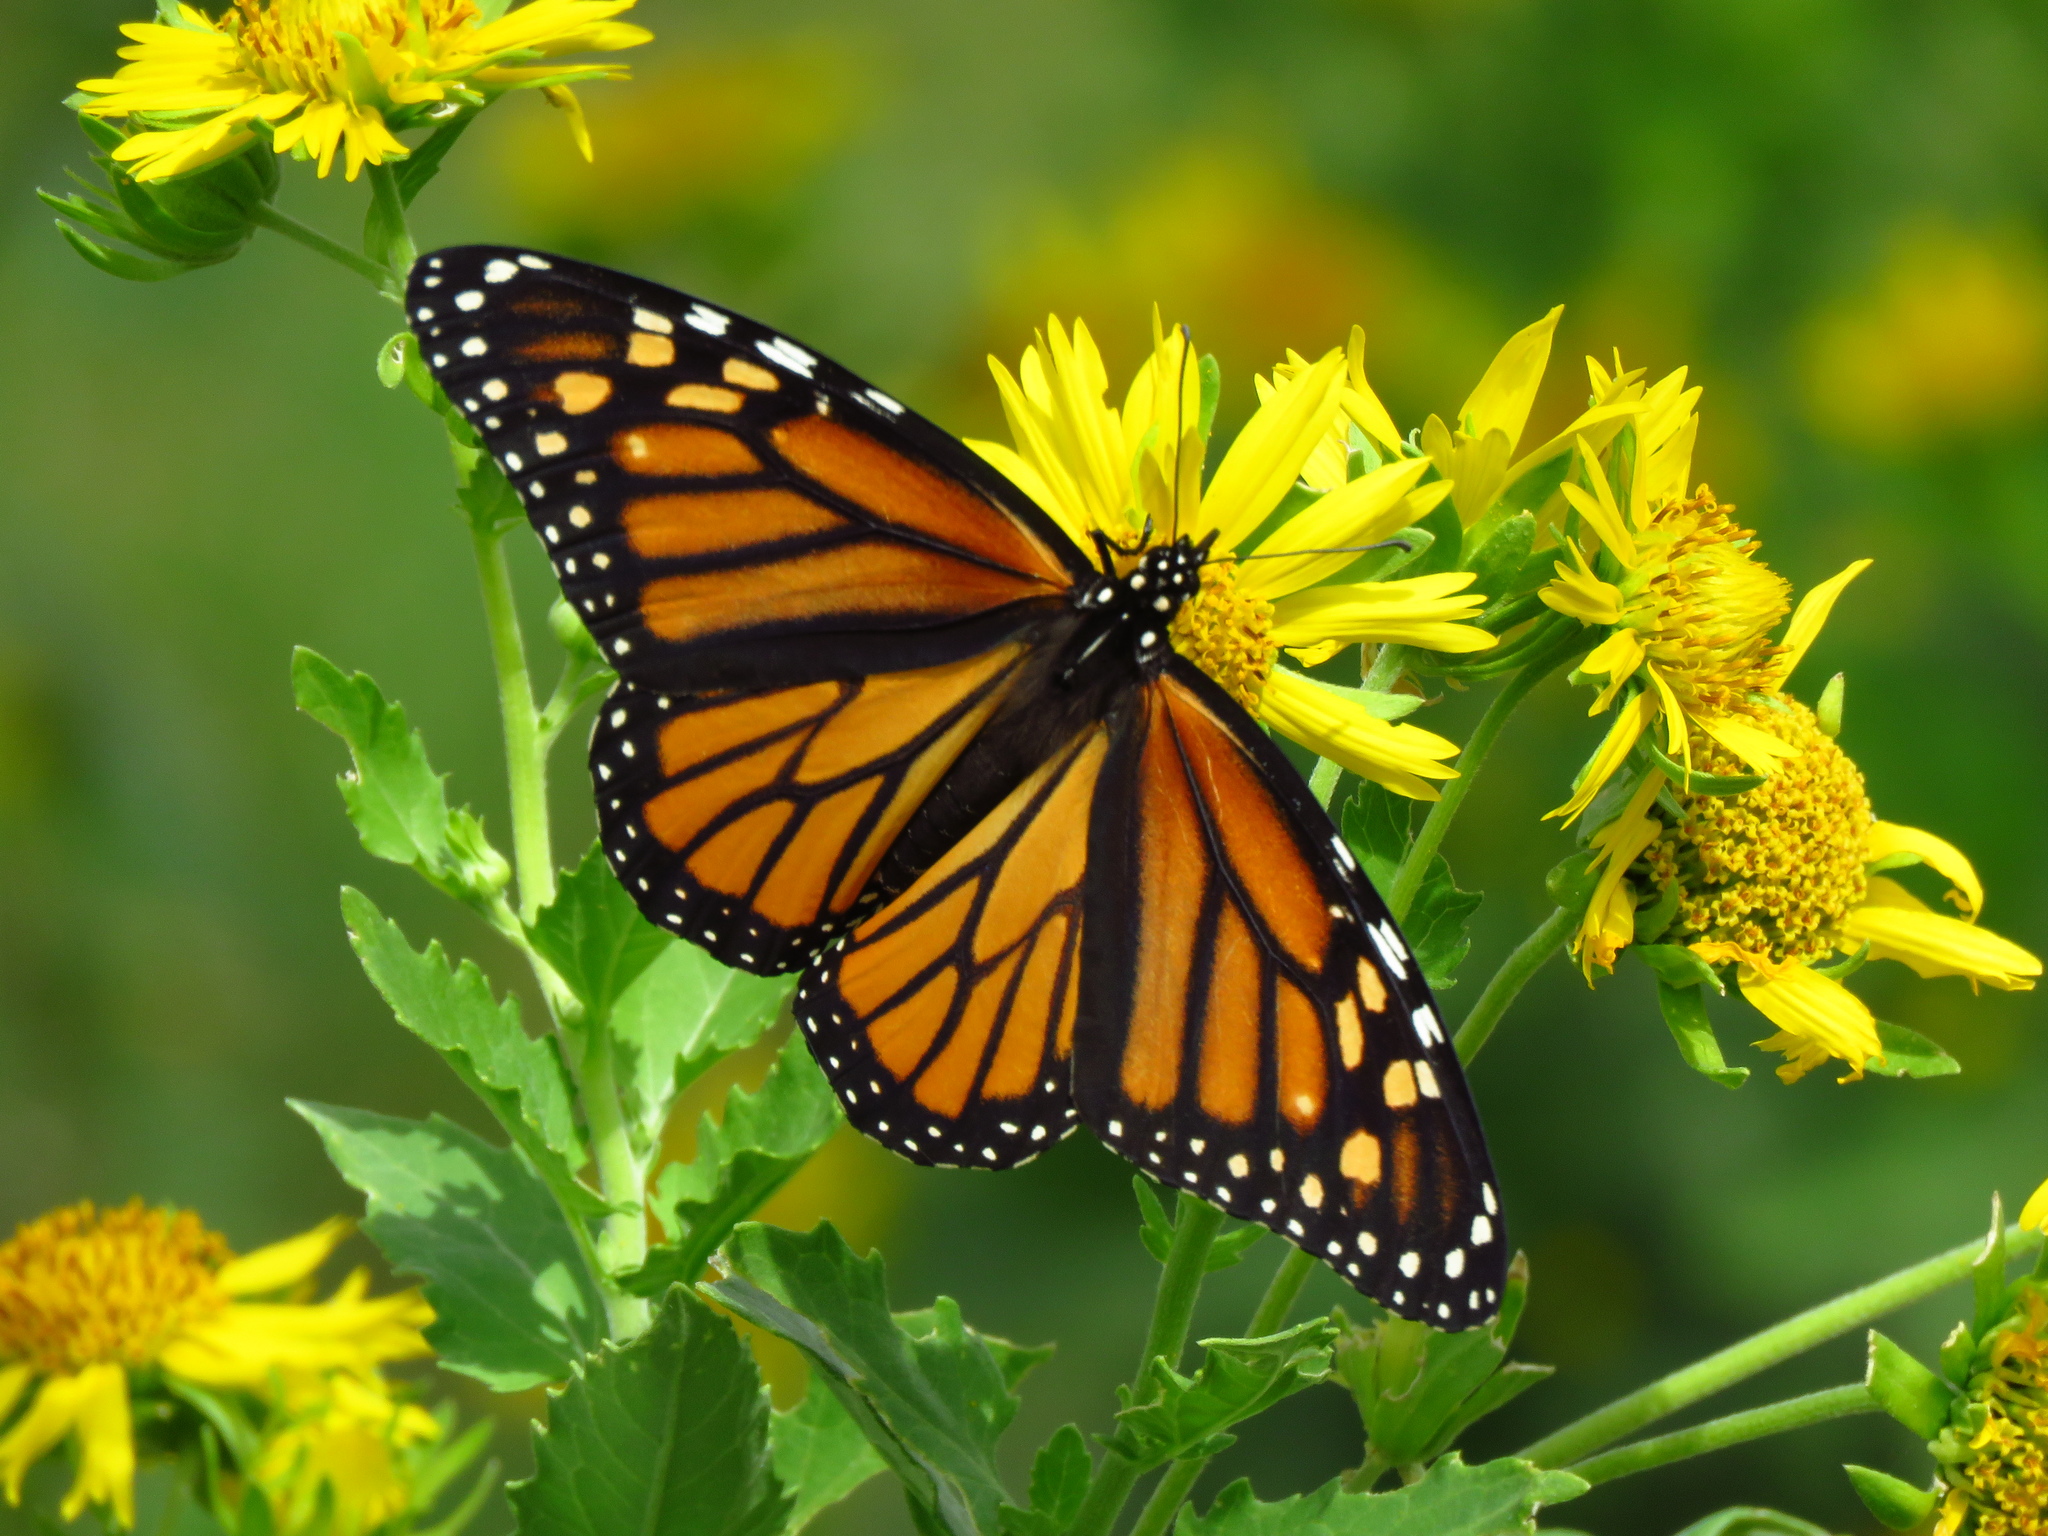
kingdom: Animalia
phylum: Arthropoda
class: Insecta
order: Lepidoptera
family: Nymphalidae
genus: Danaus
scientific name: Danaus plexippus
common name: Monarch
